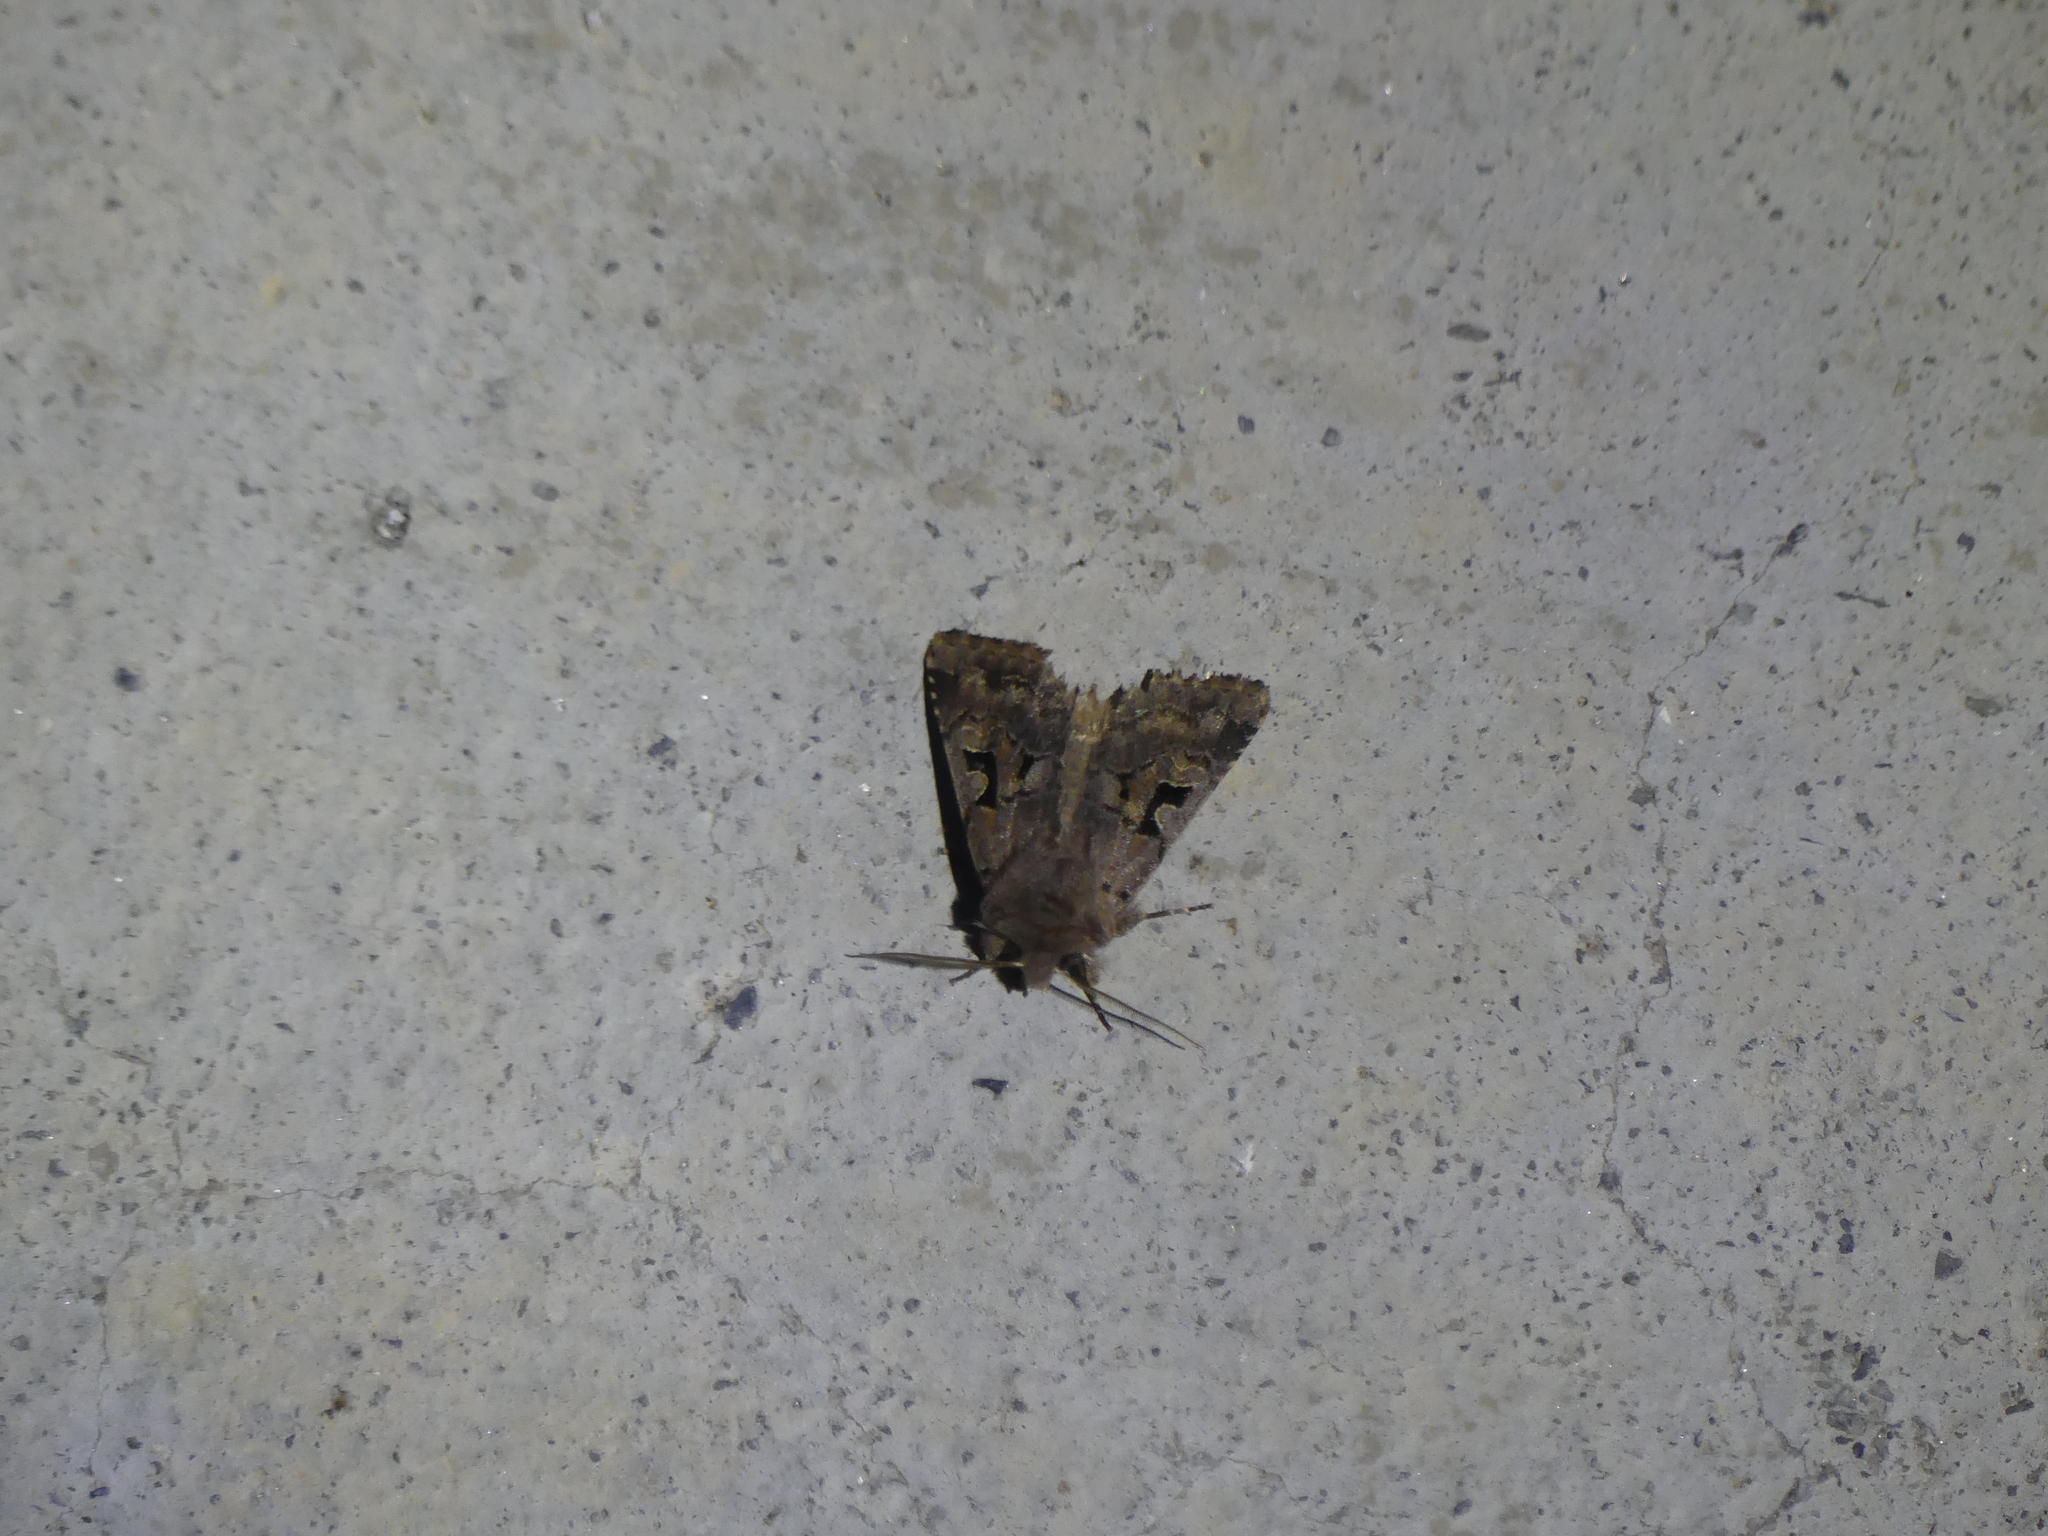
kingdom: Animalia
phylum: Arthropoda
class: Insecta
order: Lepidoptera
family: Noctuidae
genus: Orthosia
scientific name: Orthosia gothica
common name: Hebrew character
